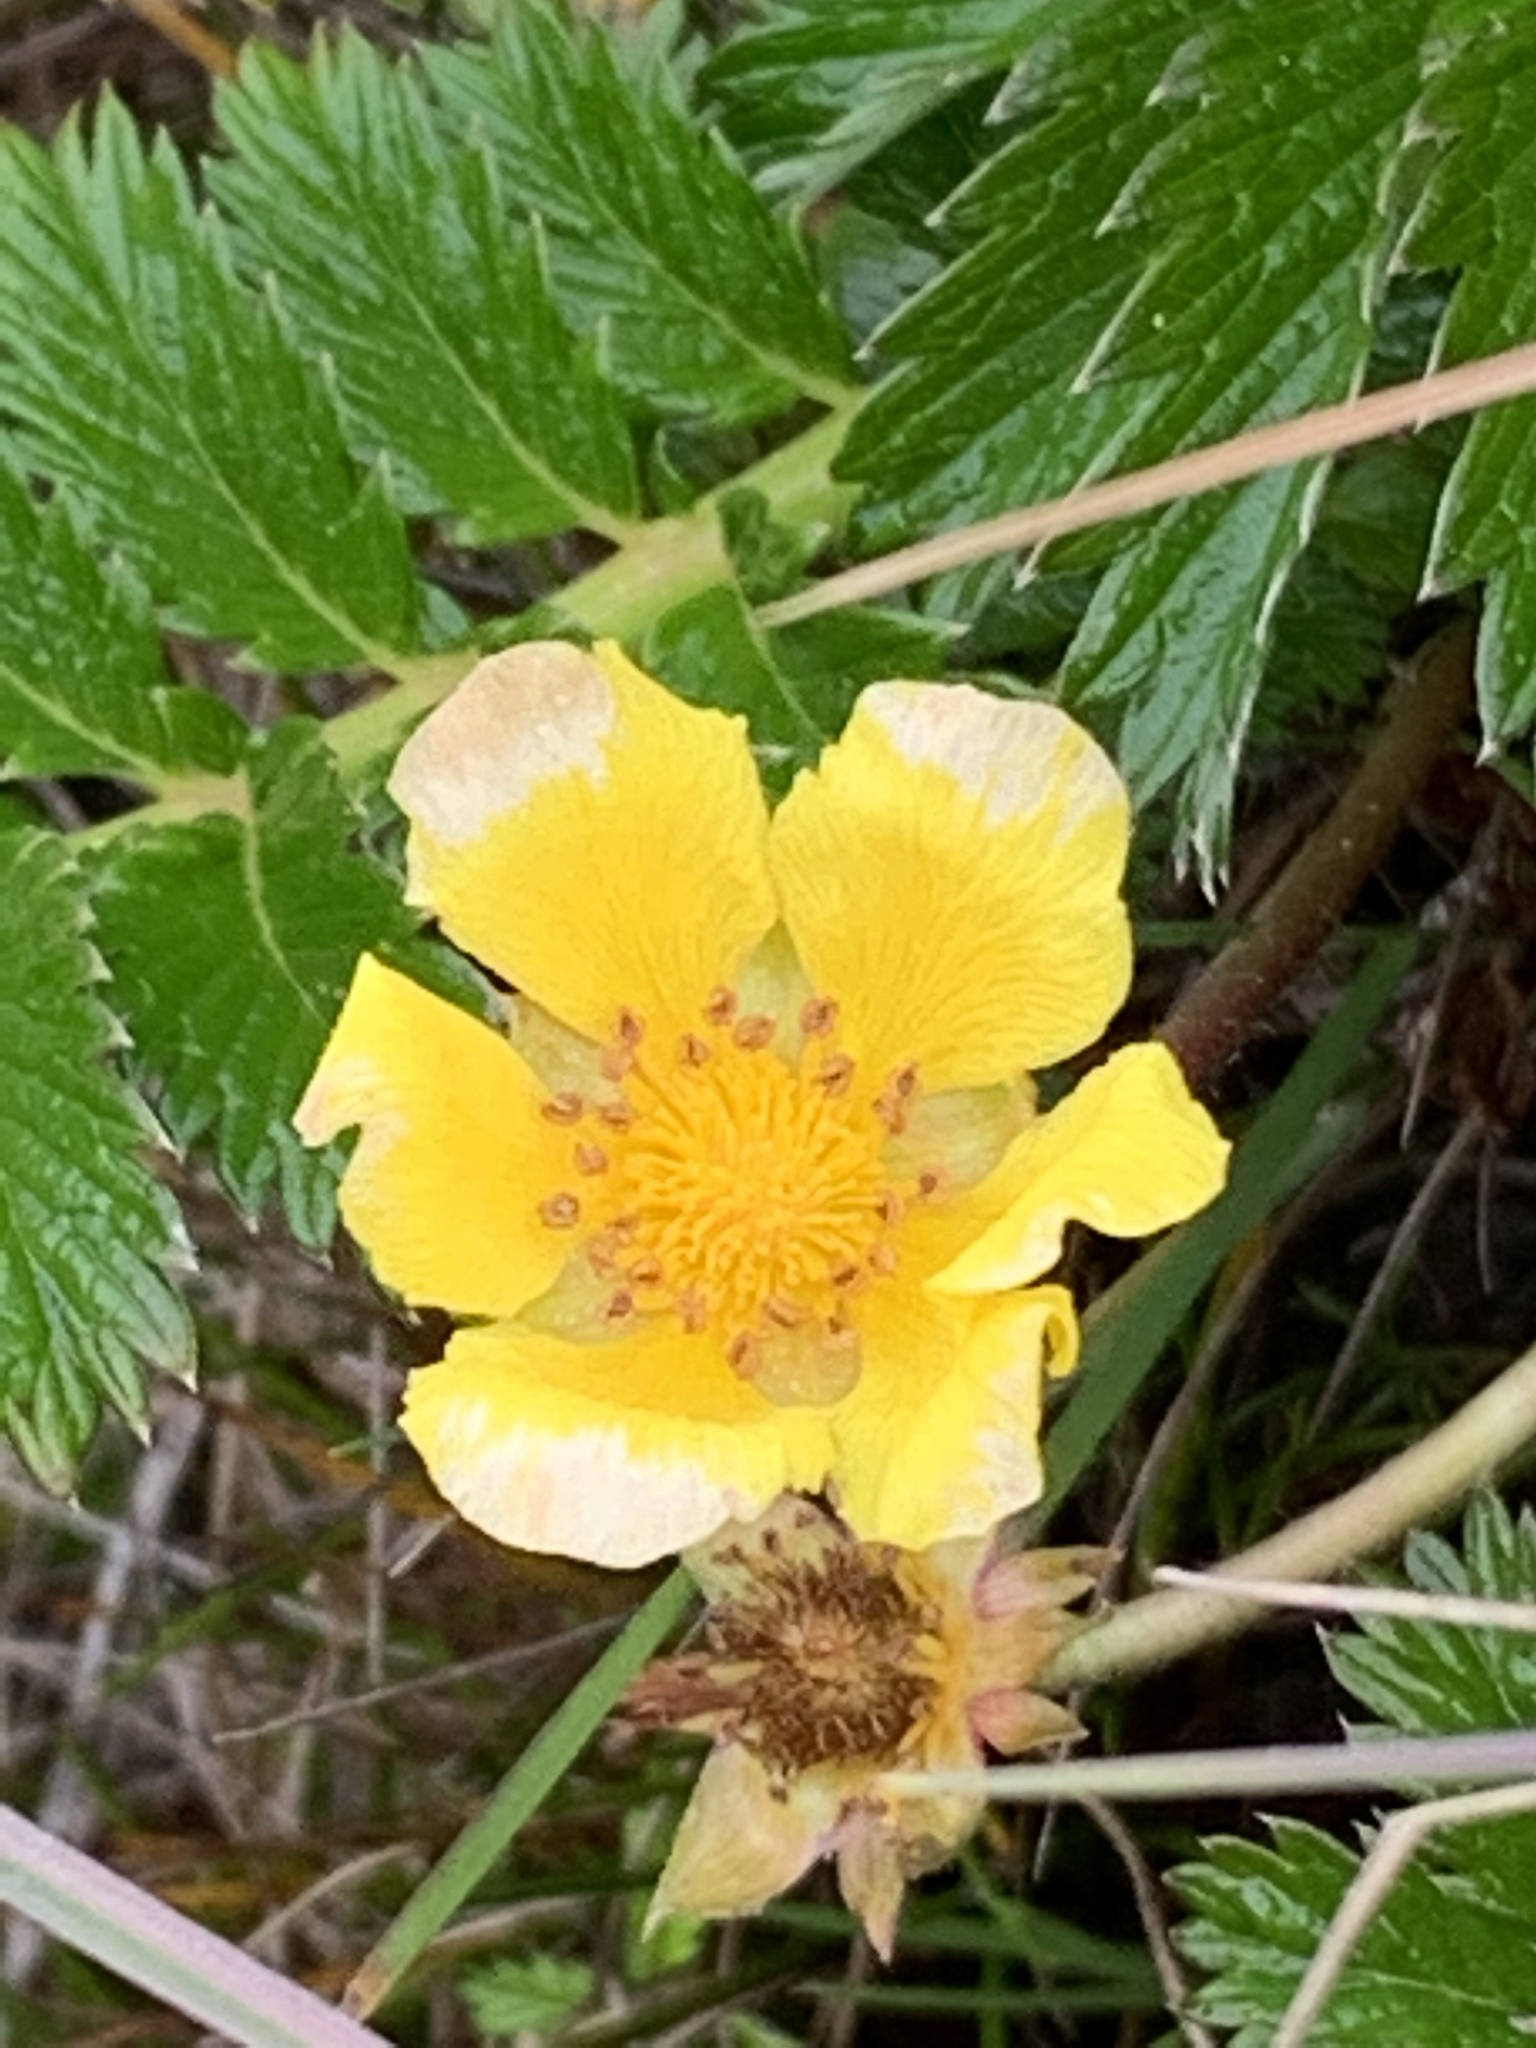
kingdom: Plantae
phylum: Tracheophyta
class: Magnoliopsida
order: Rosales
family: Rosaceae
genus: Argentina
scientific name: Argentina anserina
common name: Common silverweed
